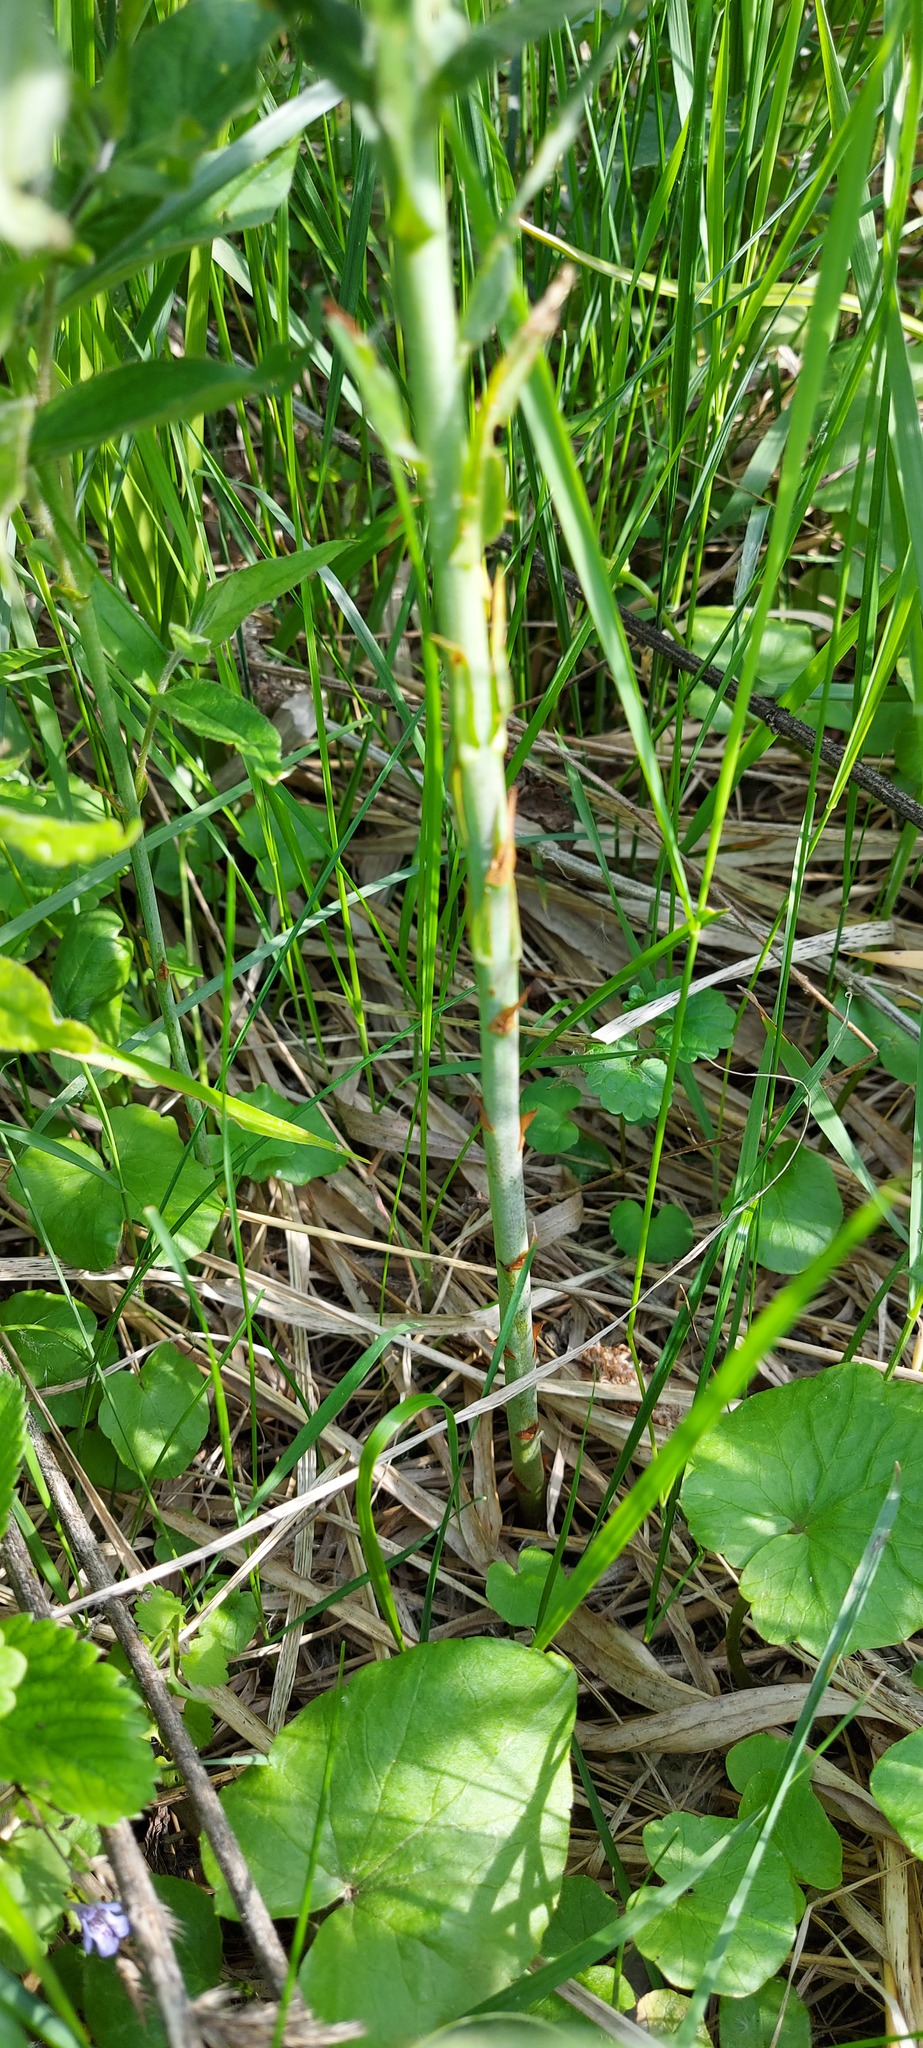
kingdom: Plantae
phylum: Tracheophyta
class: Magnoliopsida
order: Ericales
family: Primulaceae
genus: Lysimachia
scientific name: Lysimachia vulgaris
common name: Yellow loosestrife
